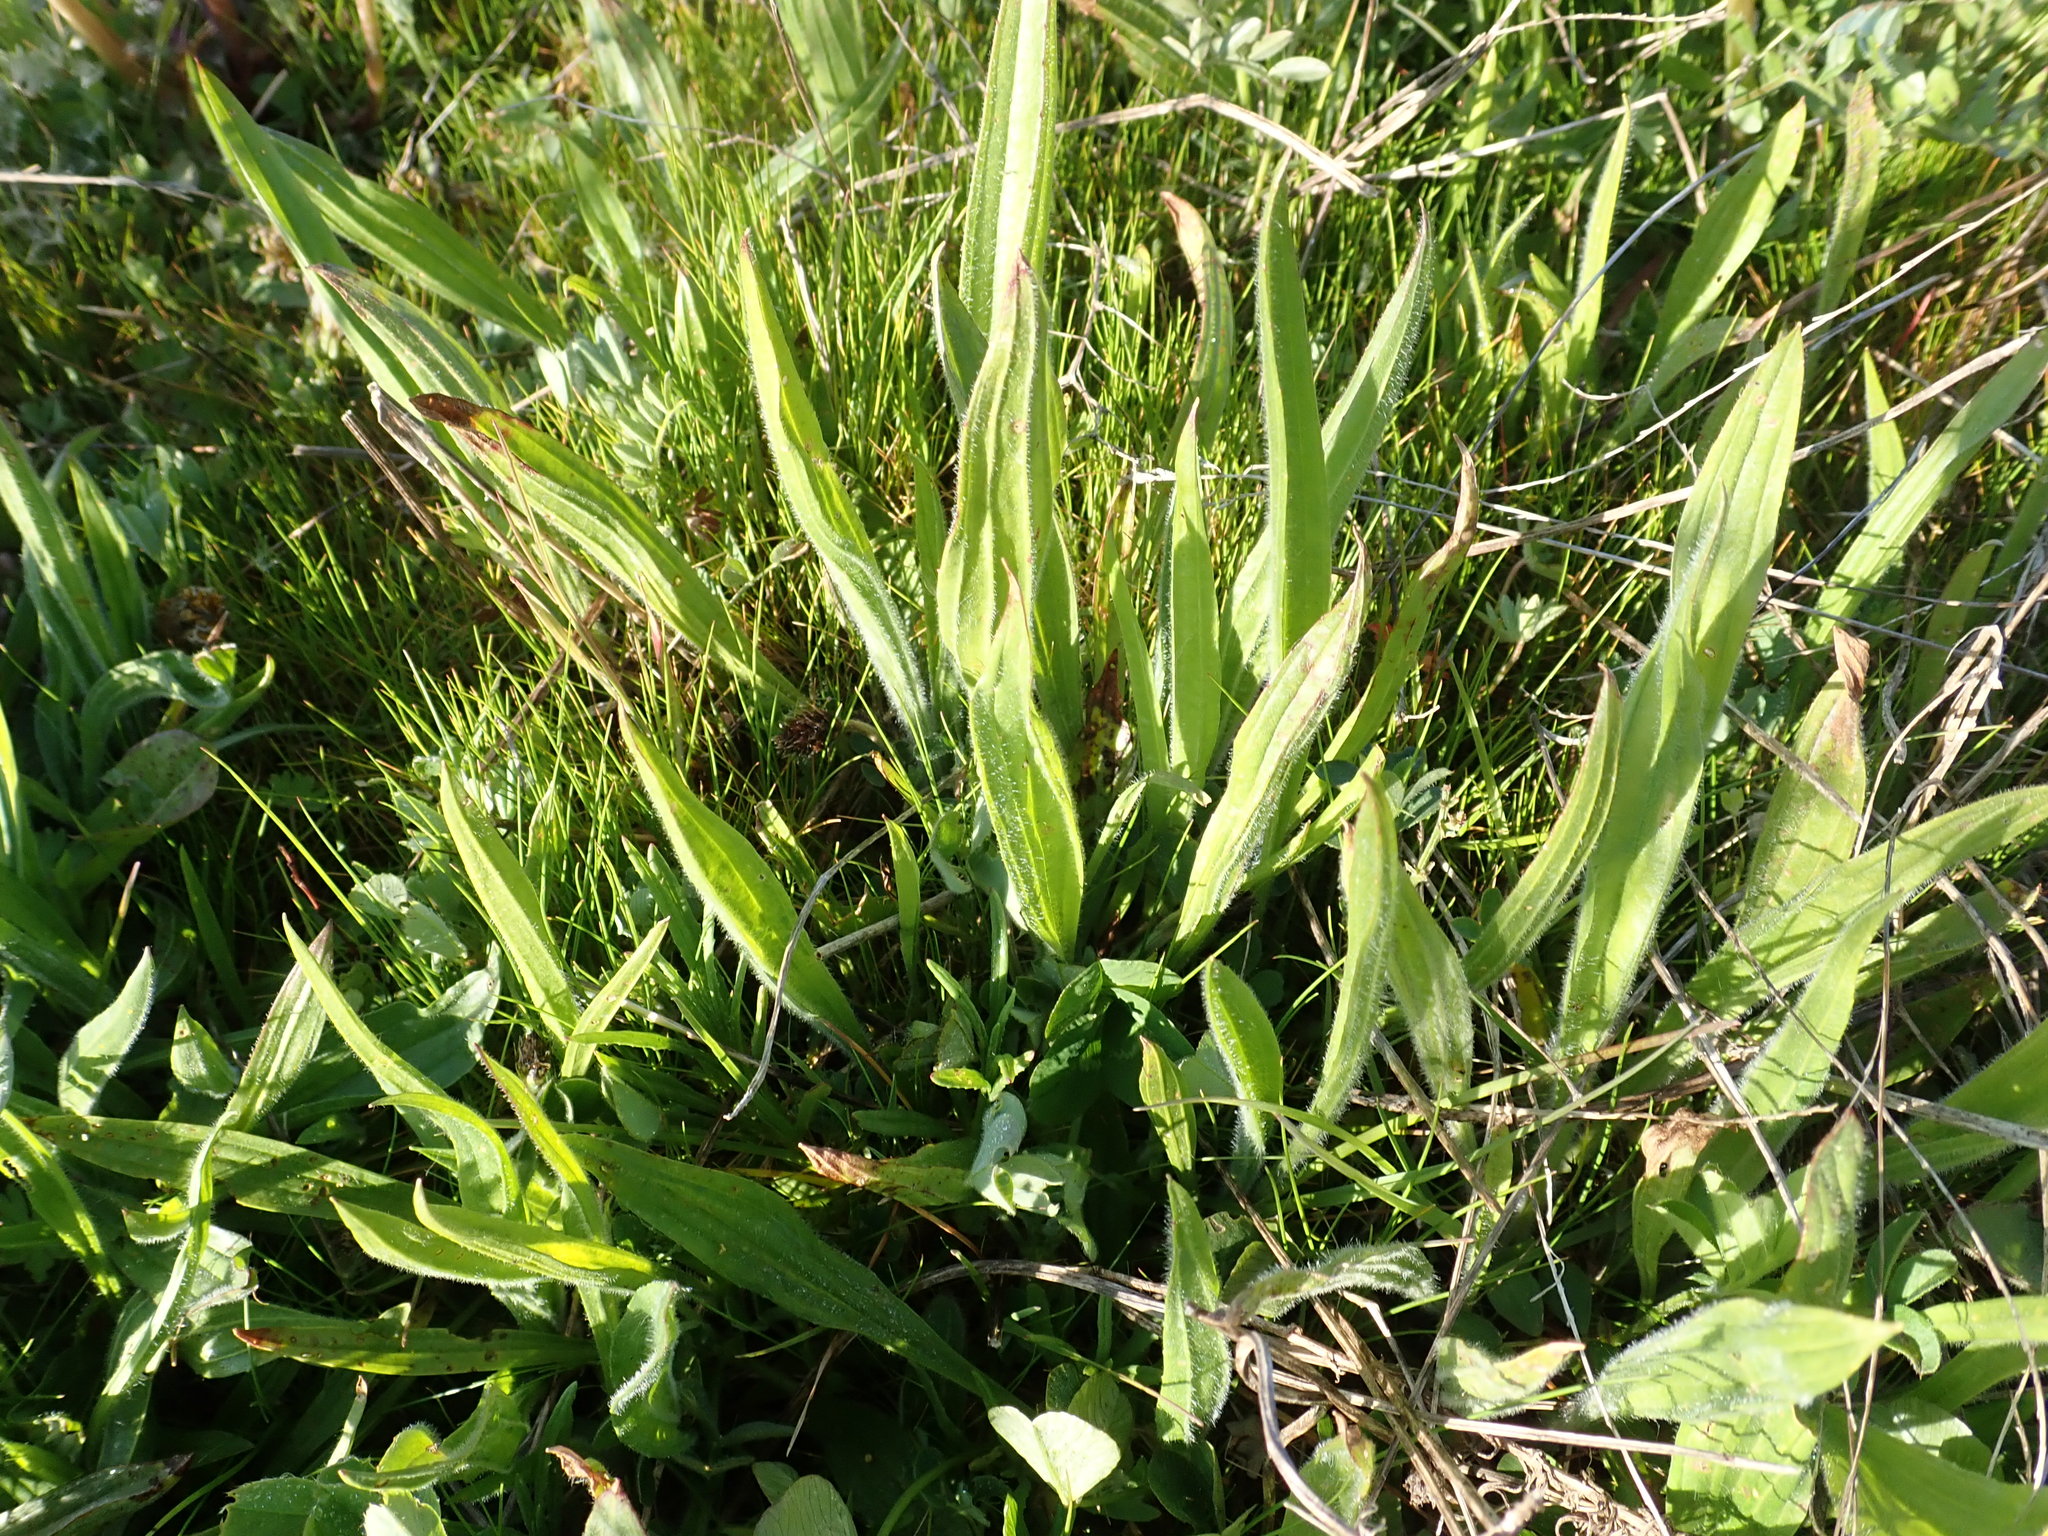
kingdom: Plantae
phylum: Tracheophyta
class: Magnoliopsida
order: Lamiales
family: Plantaginaceae
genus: Plantago
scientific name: Plantago lanceolata
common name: Ribwort plantain
